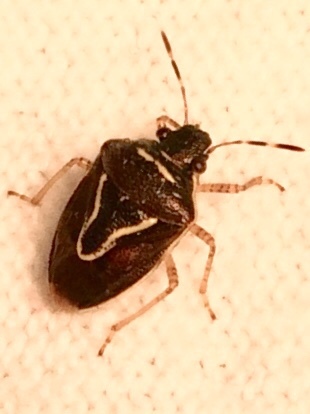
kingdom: Animalia
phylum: Arthropoda
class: Insecta
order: Hemiptera
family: Pentatomidae
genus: Mormidea
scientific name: Mormidea lugens
